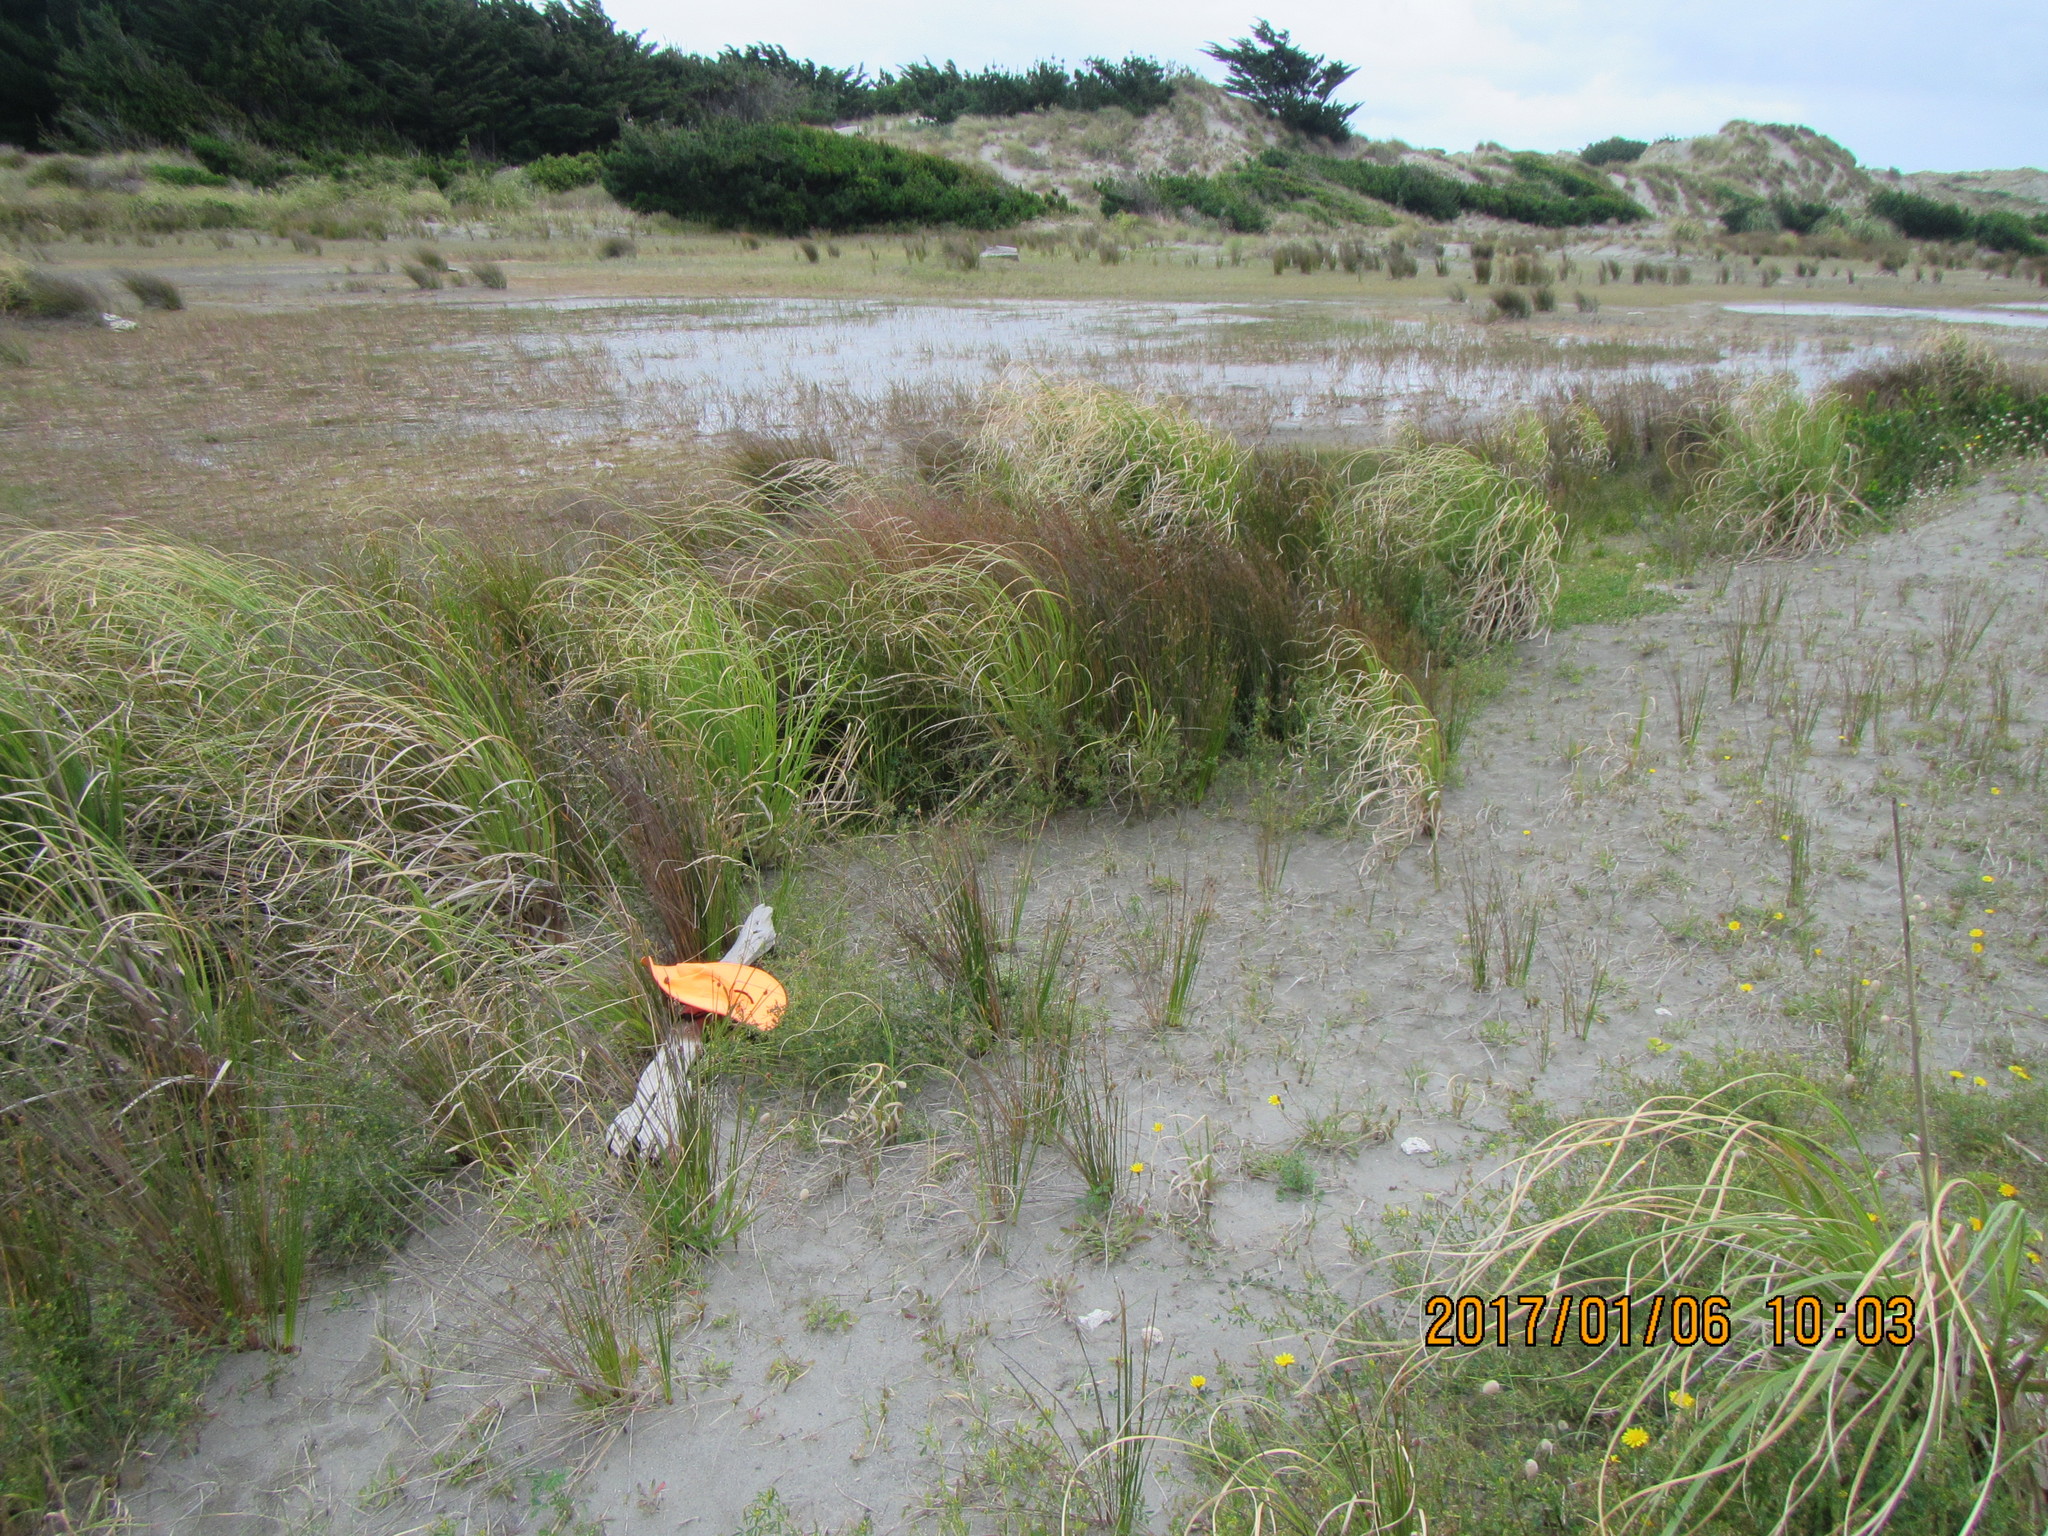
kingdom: Animalia
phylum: Arthropoda
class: Arachnida
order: Araneae
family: Theridiidae
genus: Latrodectus
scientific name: Latrodectus katipo
